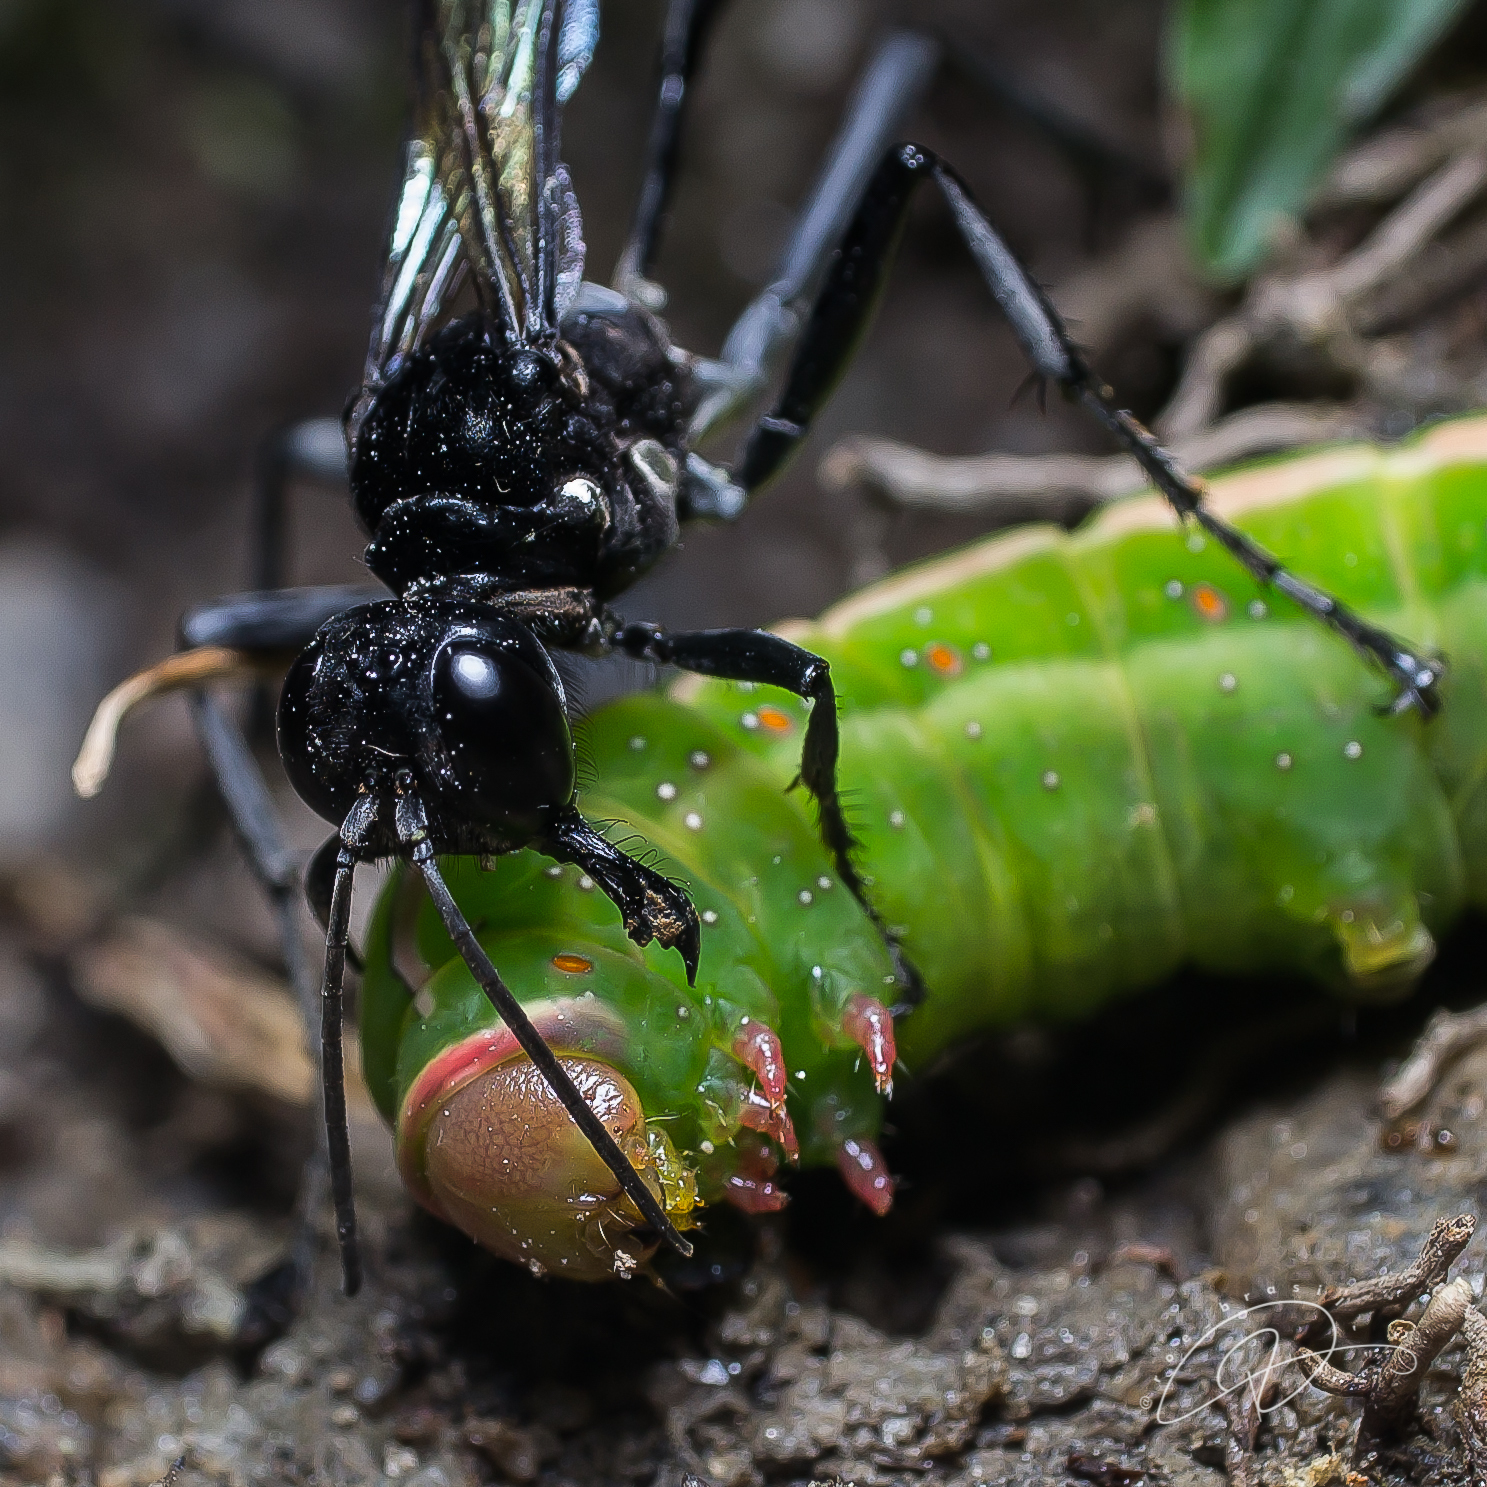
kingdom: Animalia
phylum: Arthropoda
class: Insecta
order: Hymenoptera
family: Sphecidae
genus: Eremnophila
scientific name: Eremnophila binodis
